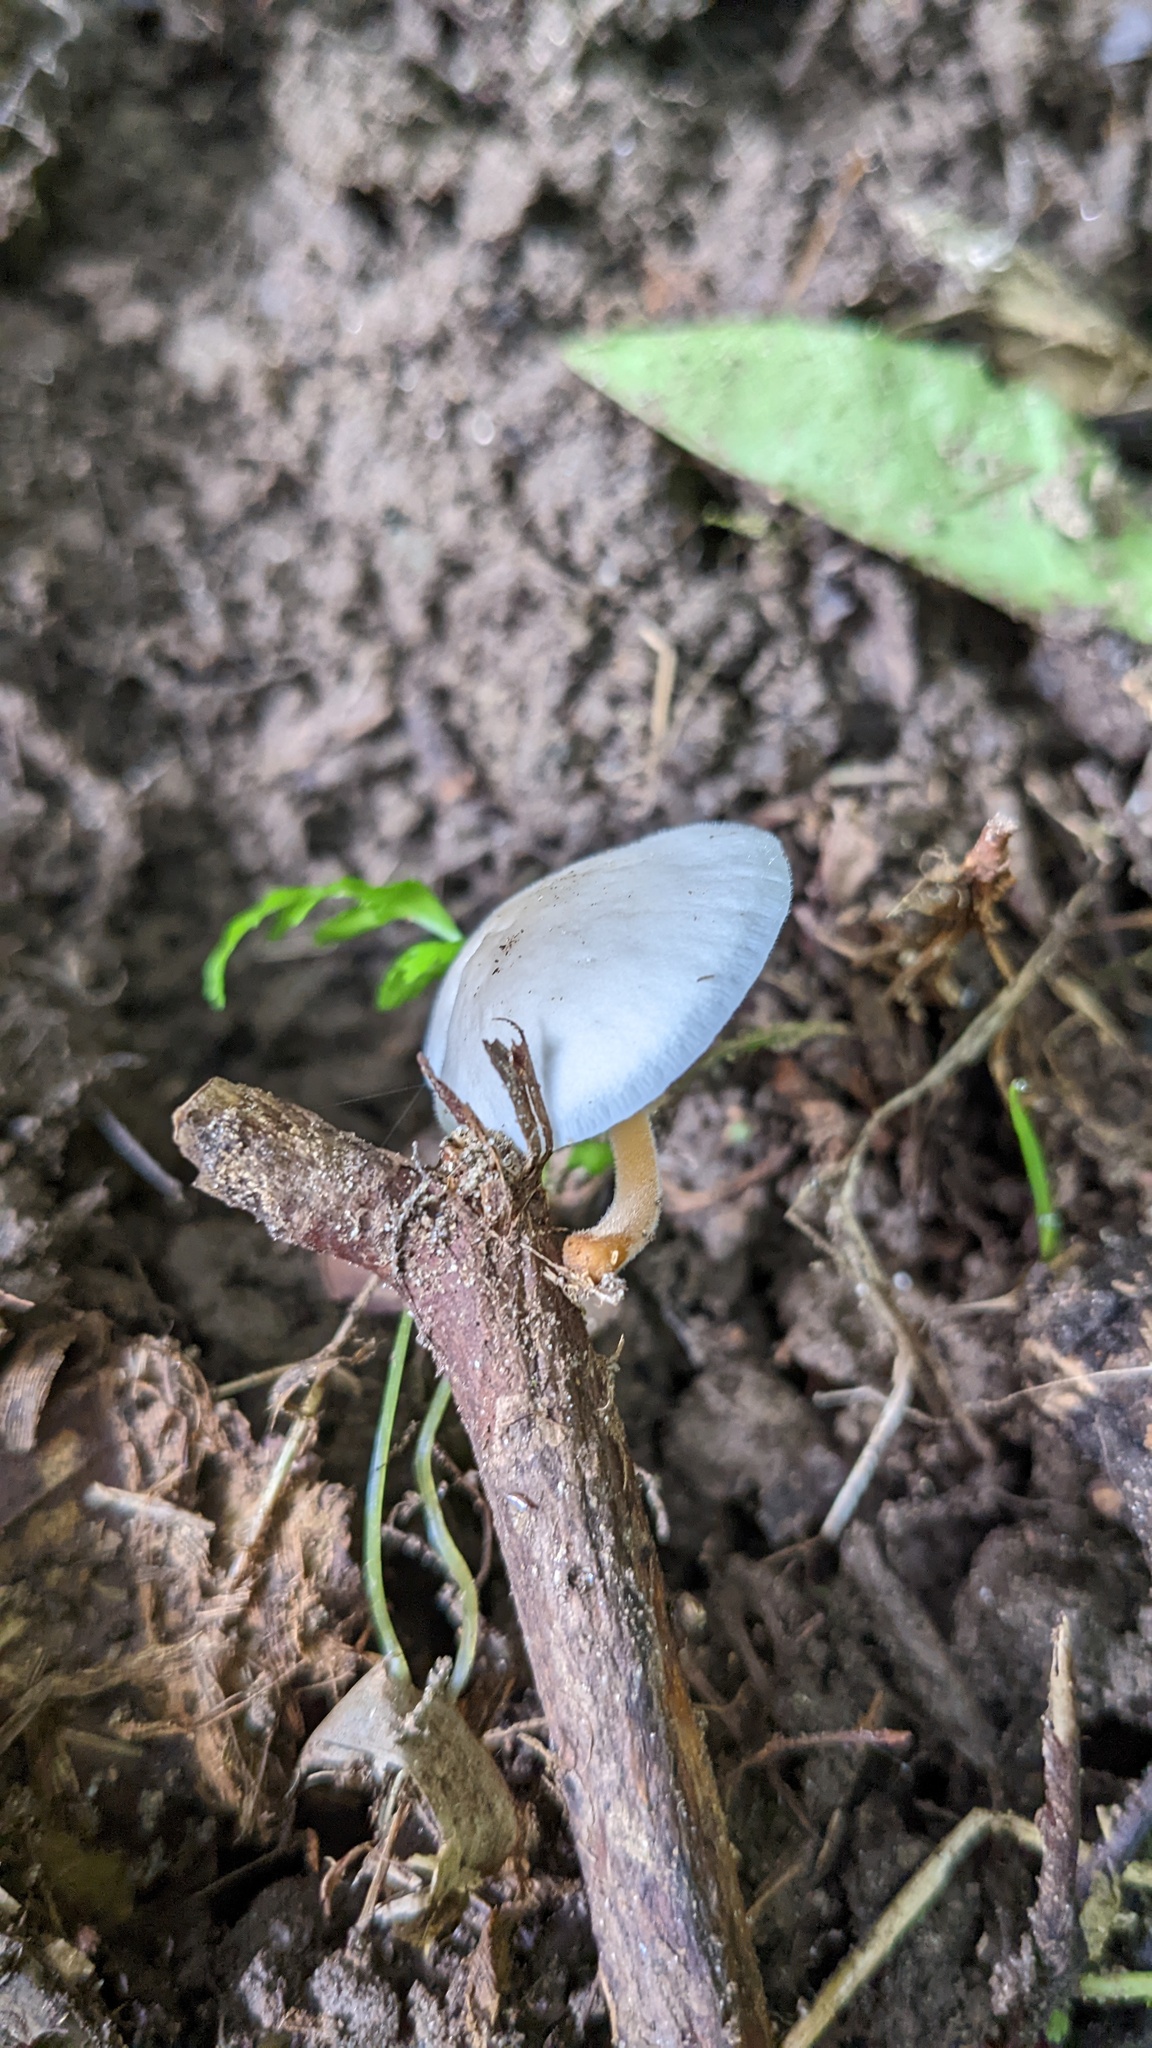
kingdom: Fungi
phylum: Basidiomycota
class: Agaricomycetes
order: Agaricales
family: Physalacriaceae
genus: Strobilurus
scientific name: Strobilurus ohshimae
